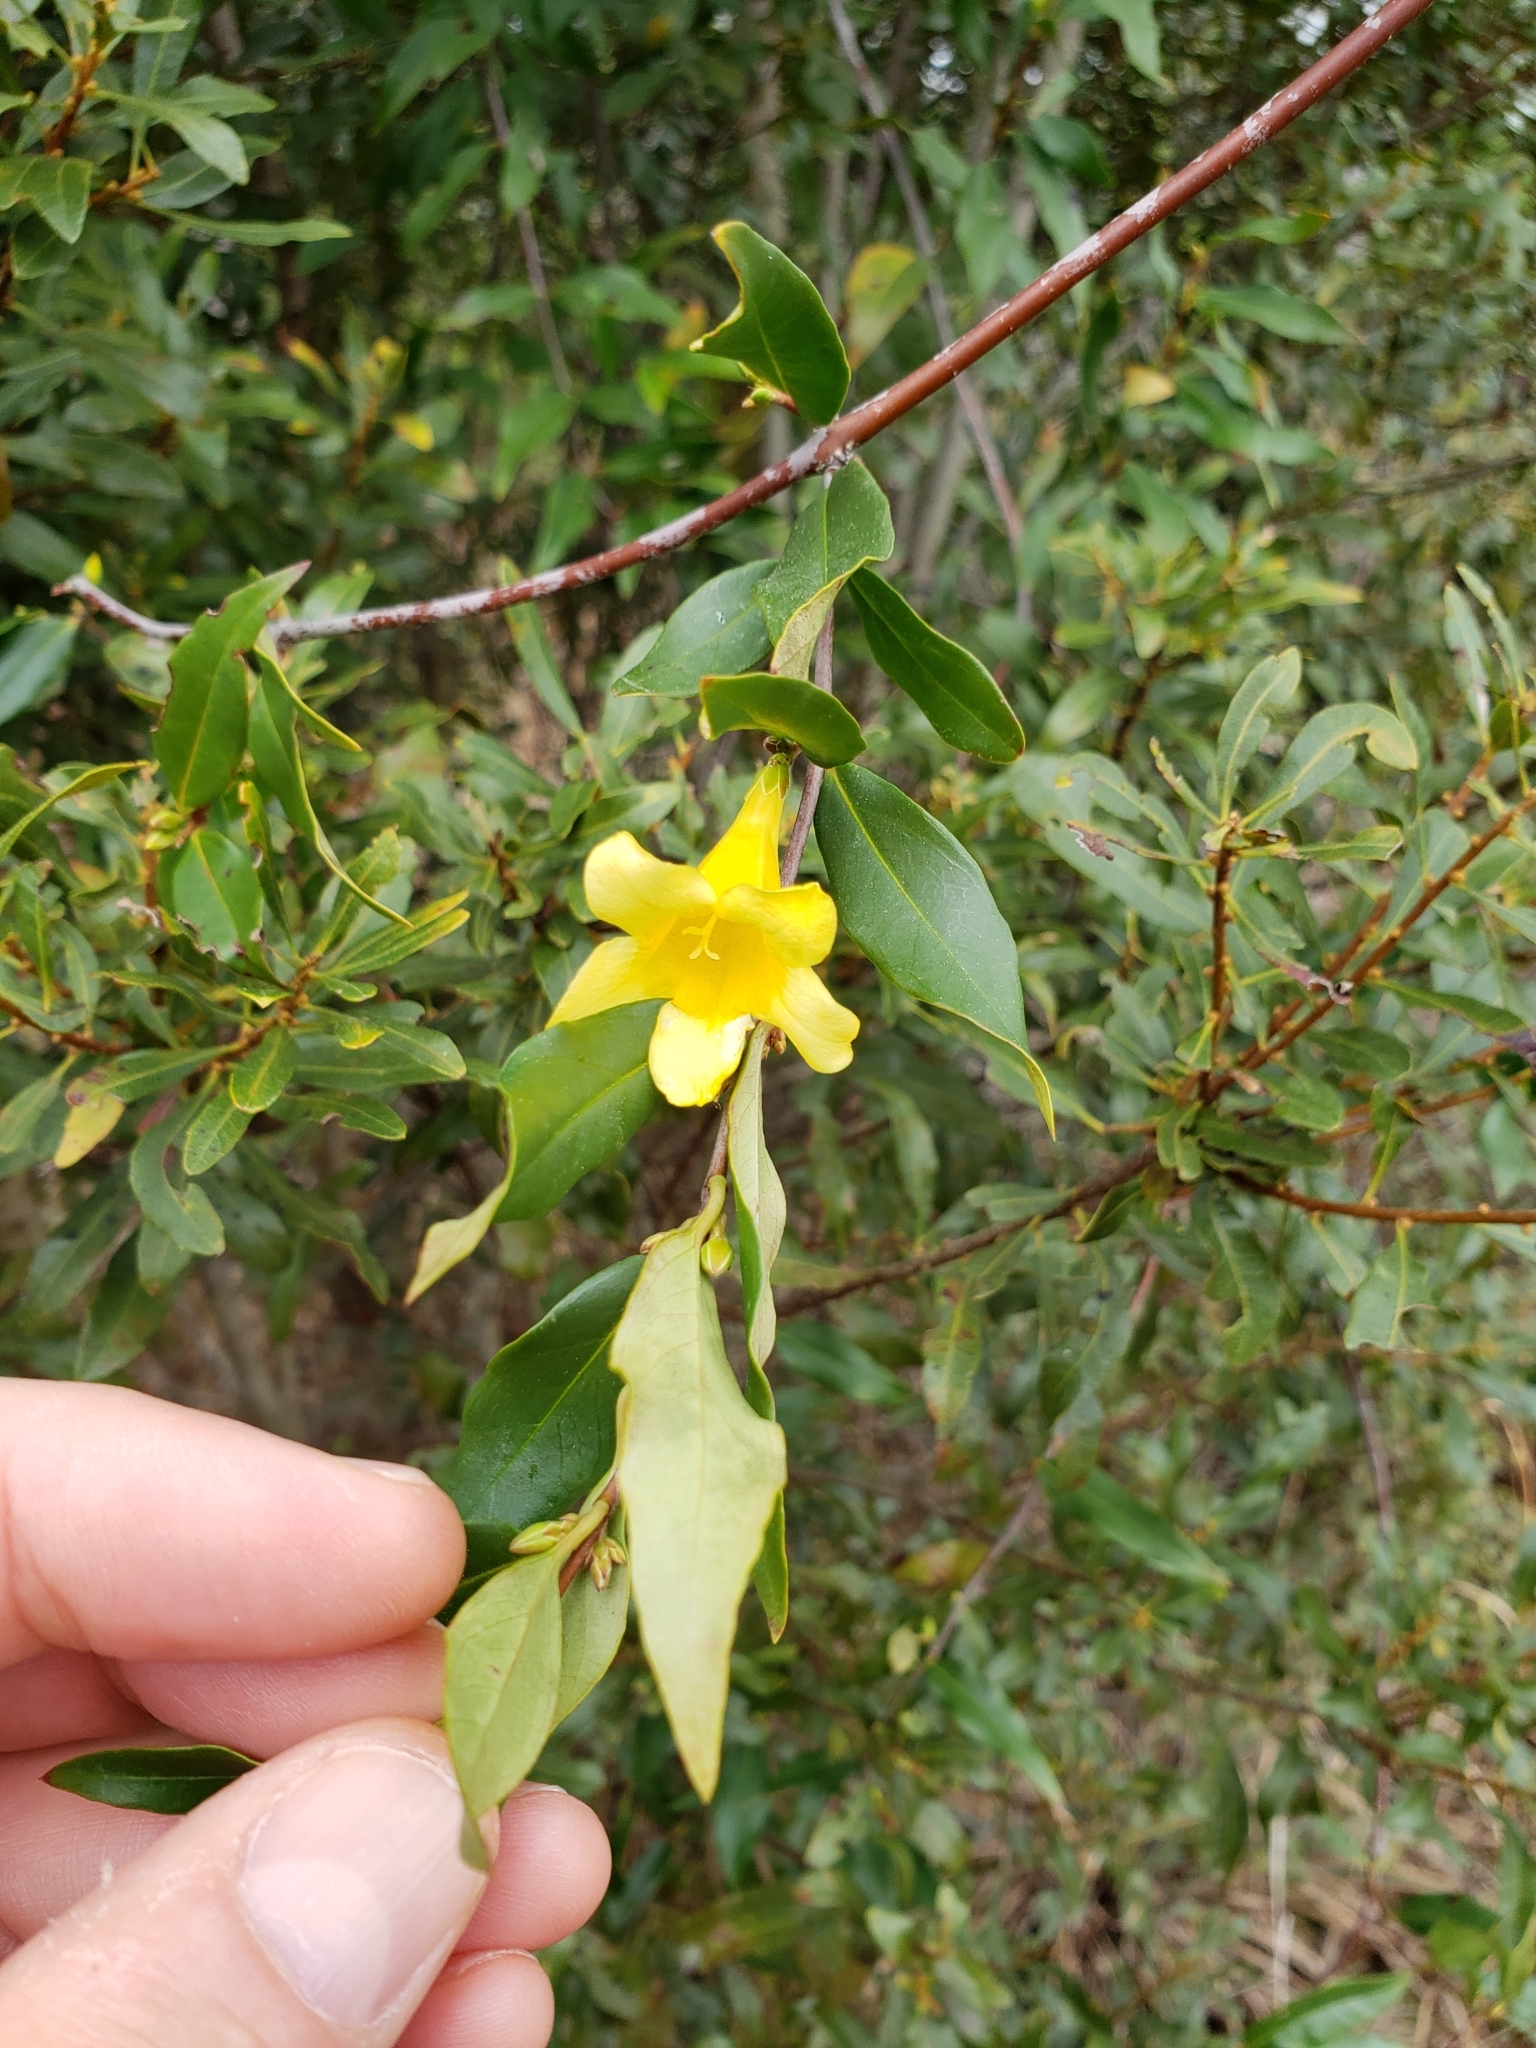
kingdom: Plantae
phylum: Tracheophyta
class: Magnoliopsida
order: Gentianales
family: Gelsemiaceae
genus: Gelsemium
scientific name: Gelsemium sempervirens
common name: Carolina-jasmine
